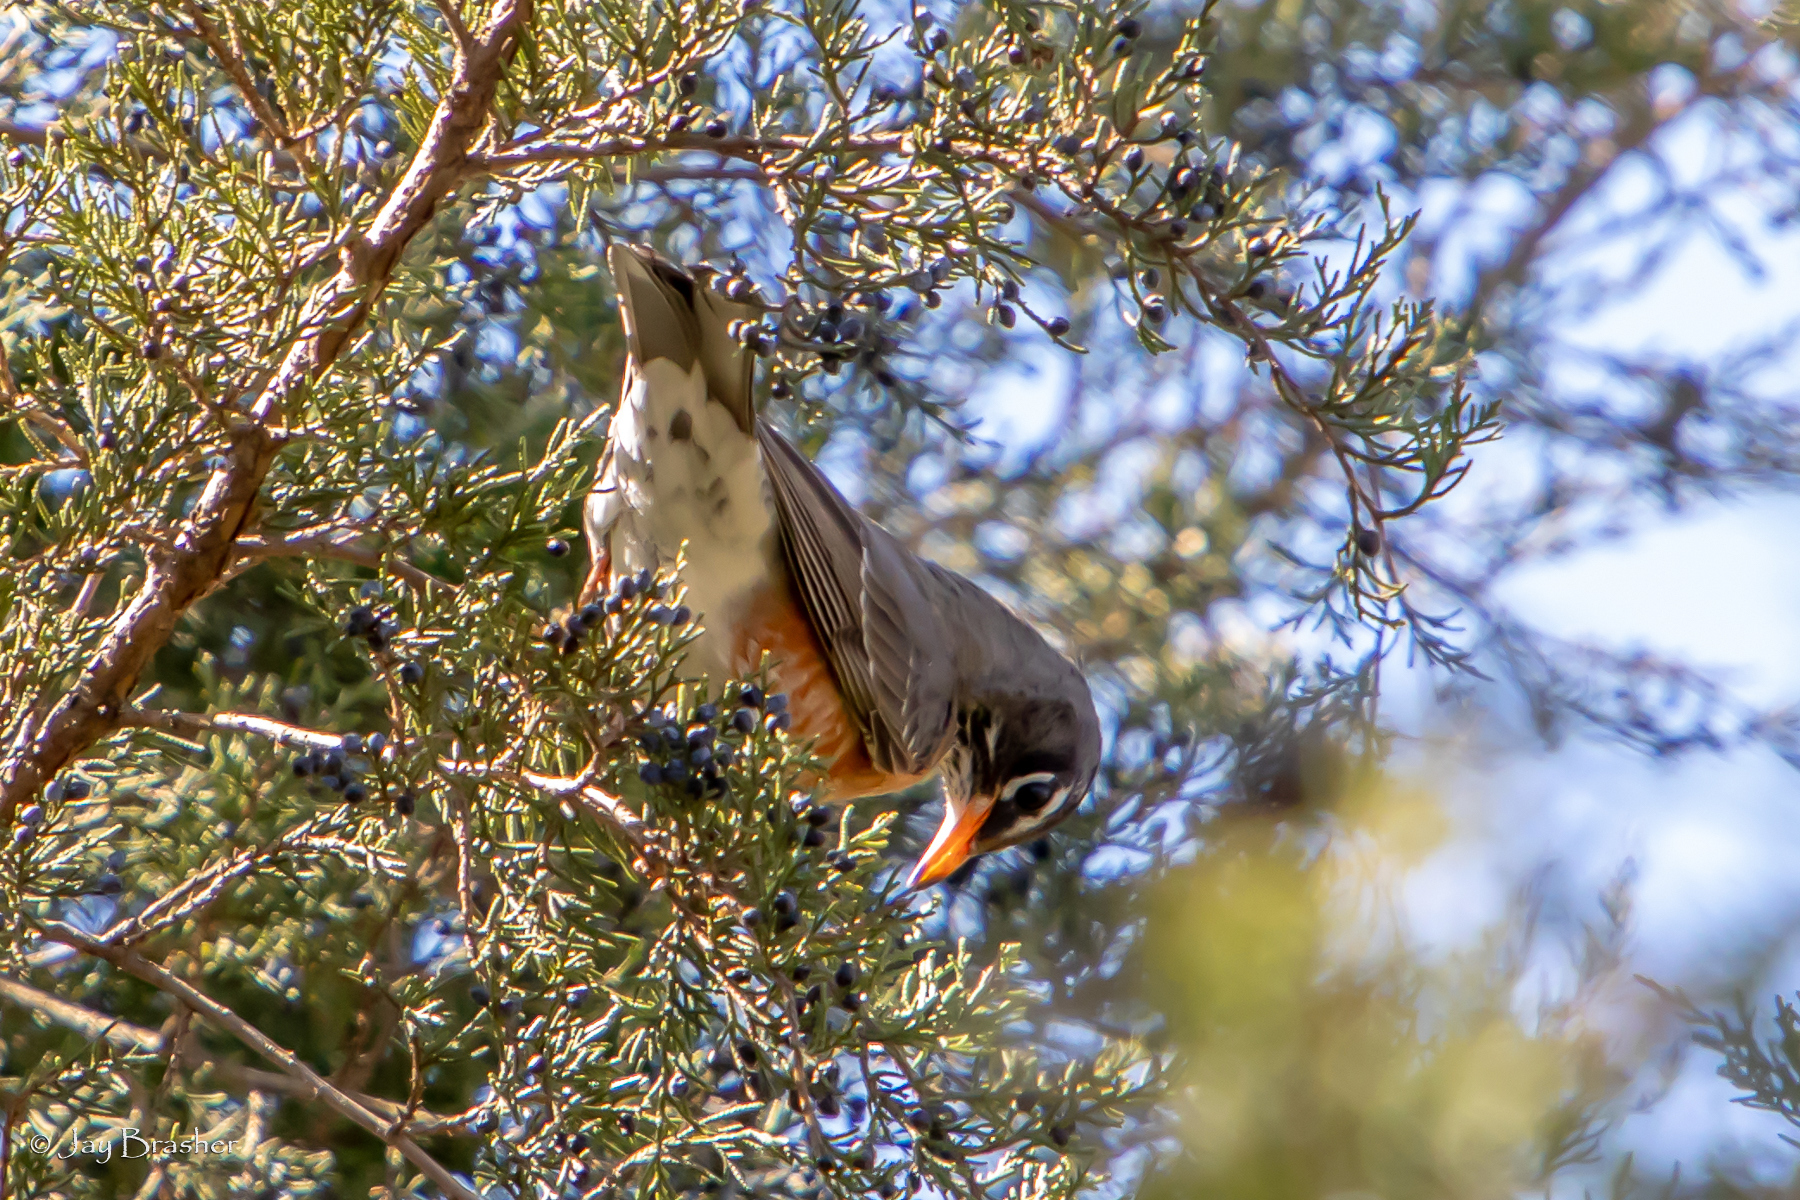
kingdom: Animalia
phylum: Chordata
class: Aves
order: Passeriformes
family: Turdidae
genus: Turdus
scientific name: Turdus migratorius
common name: American robin
